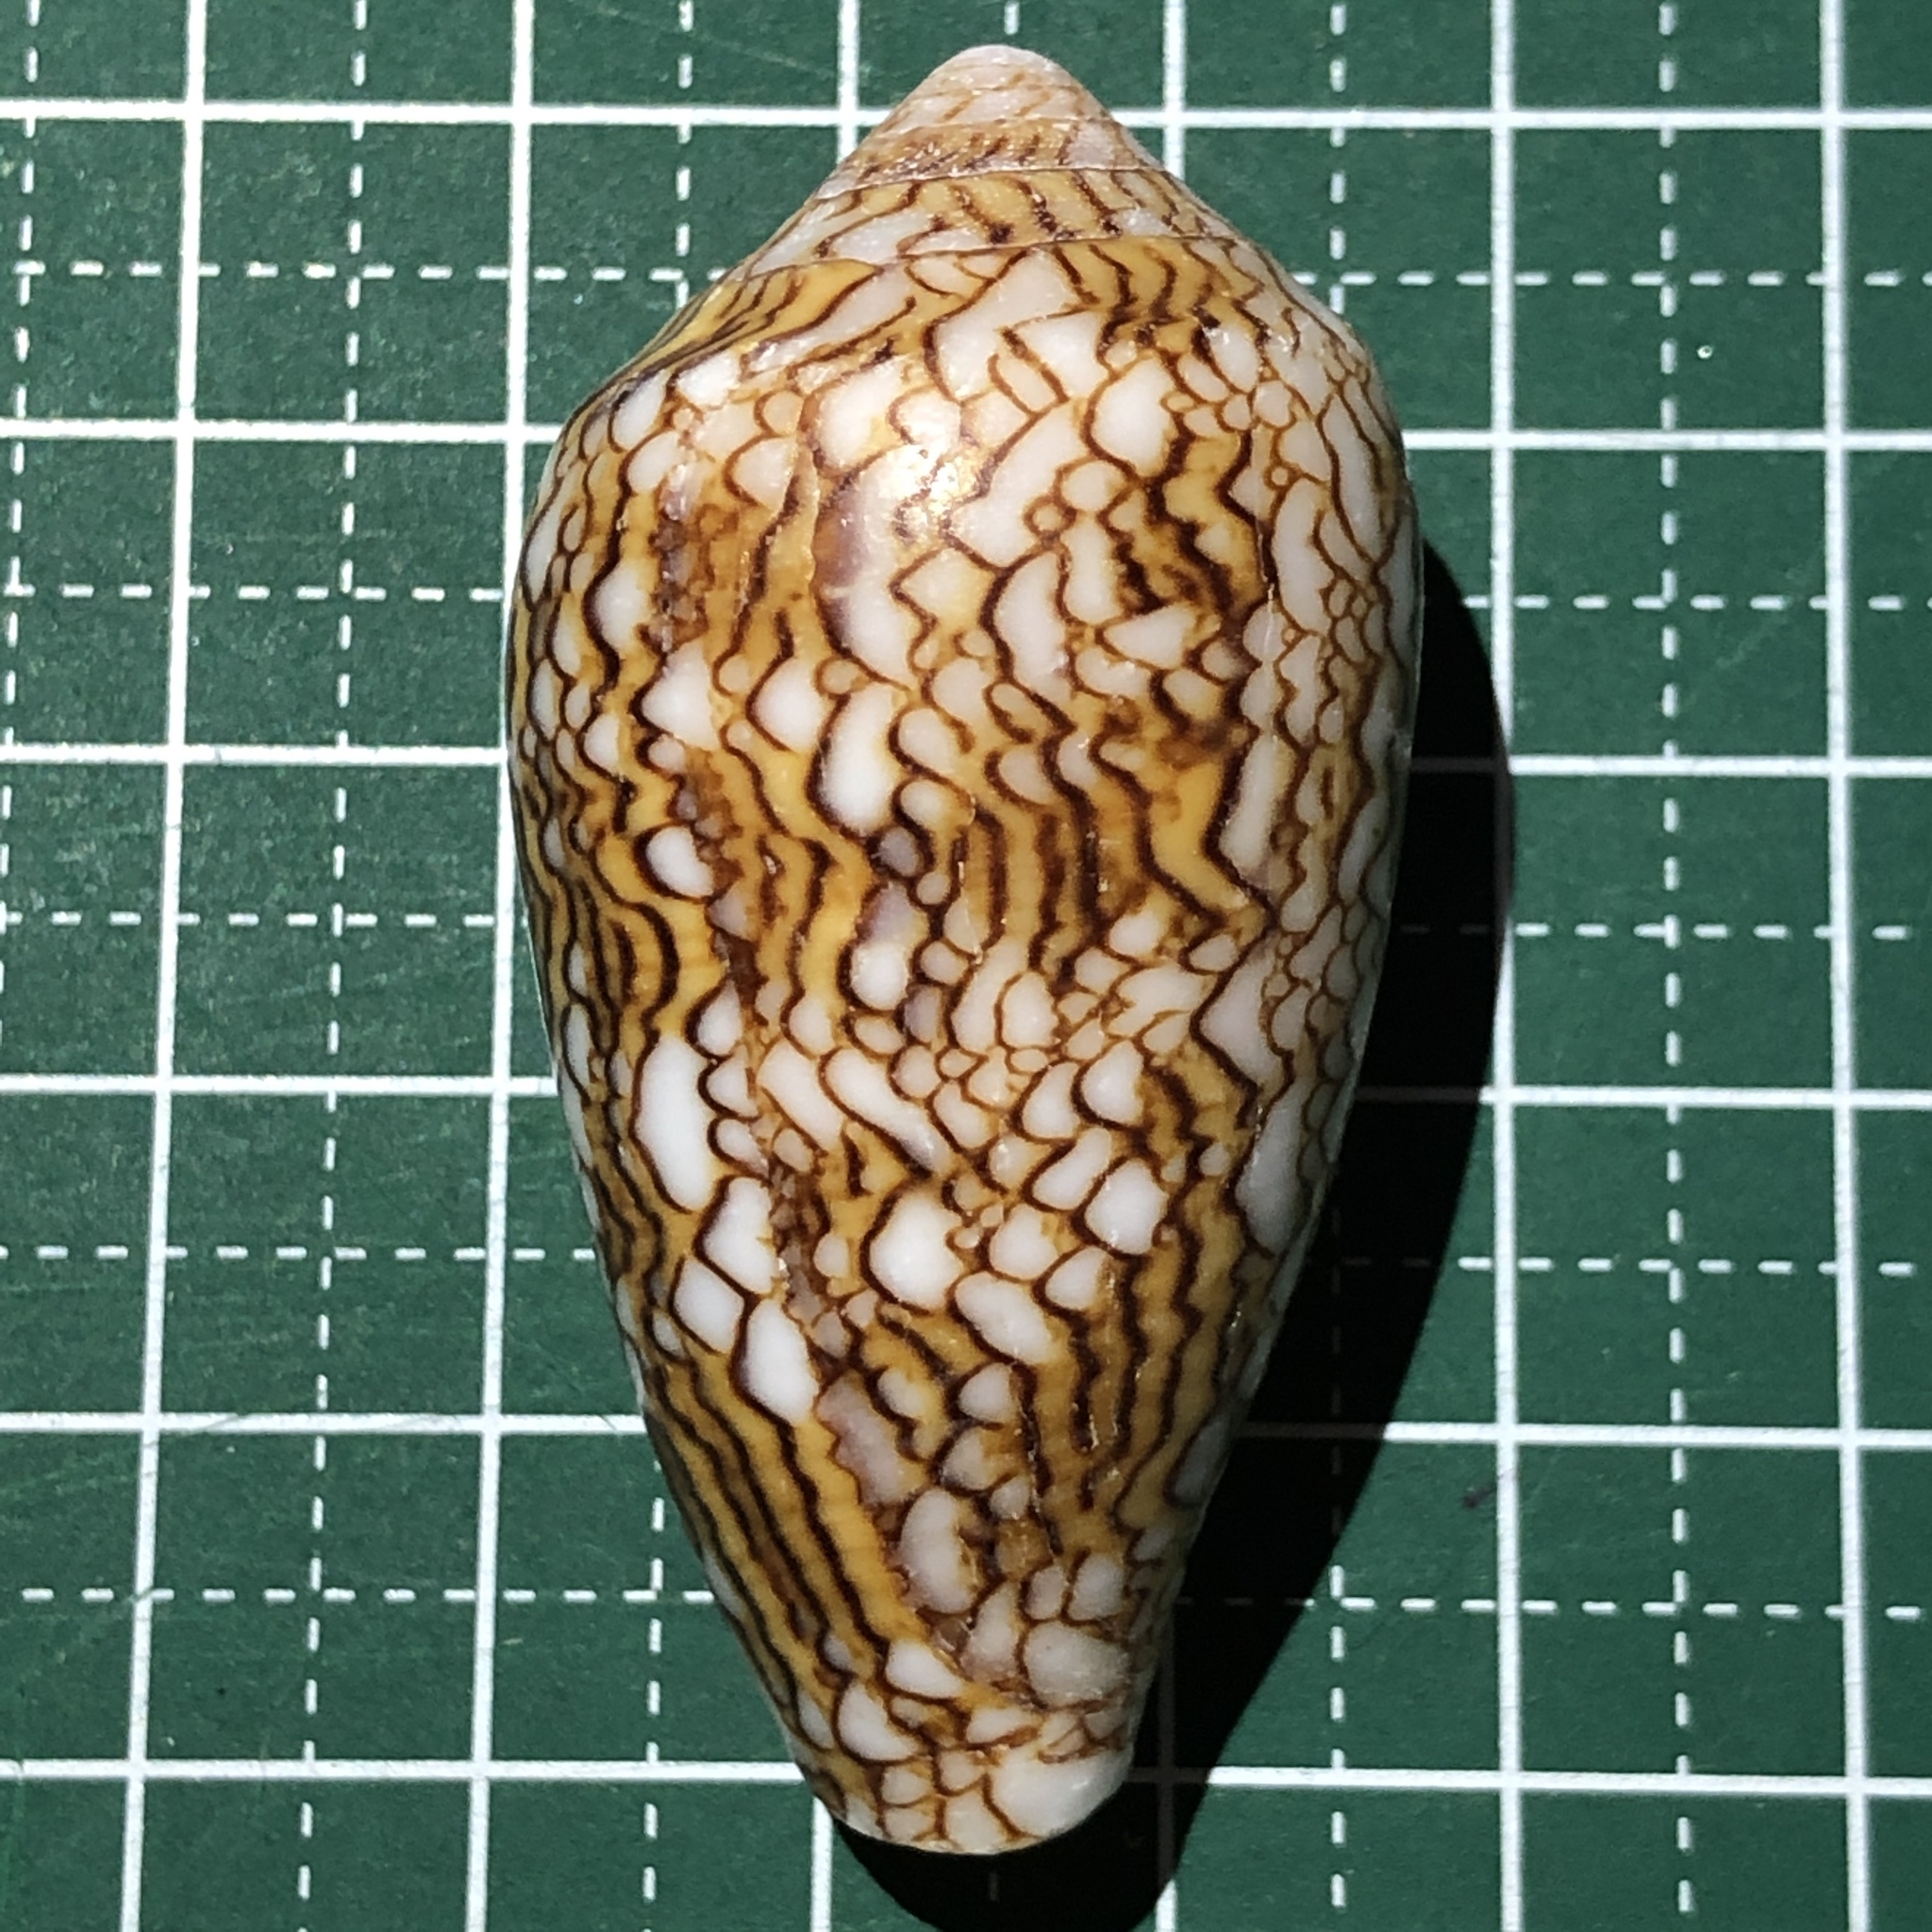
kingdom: Animalia
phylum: Mollusca
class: Gastropoda
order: Neogastropoda
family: Conidae
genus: Conus
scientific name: Conus textile
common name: Cloth-of-gold cone
